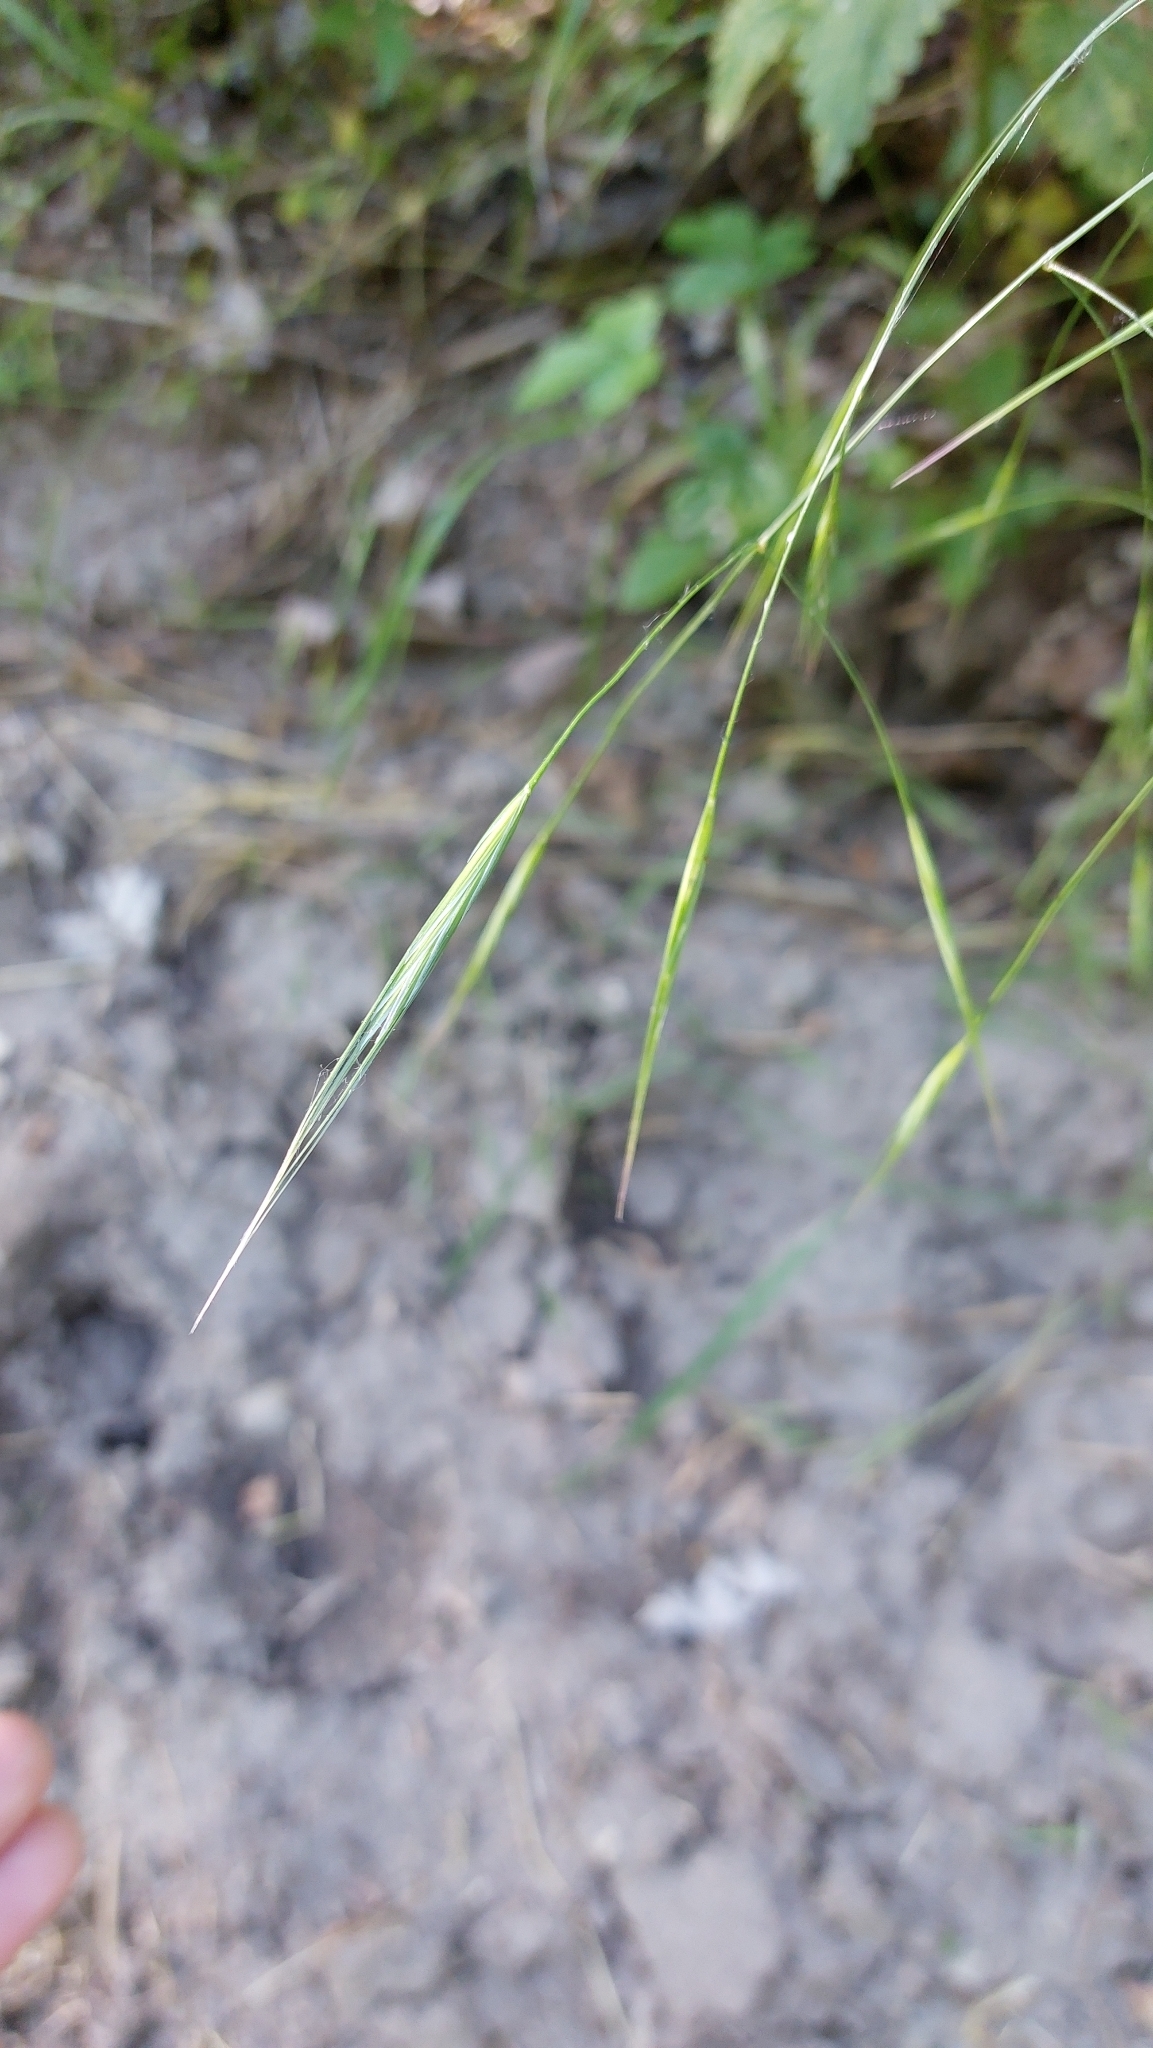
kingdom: Plantae
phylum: Tracheophyta
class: Liliopsida
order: Poales
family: Poaceae
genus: Bromus
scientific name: Bromus sterilis
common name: Poverty brome
